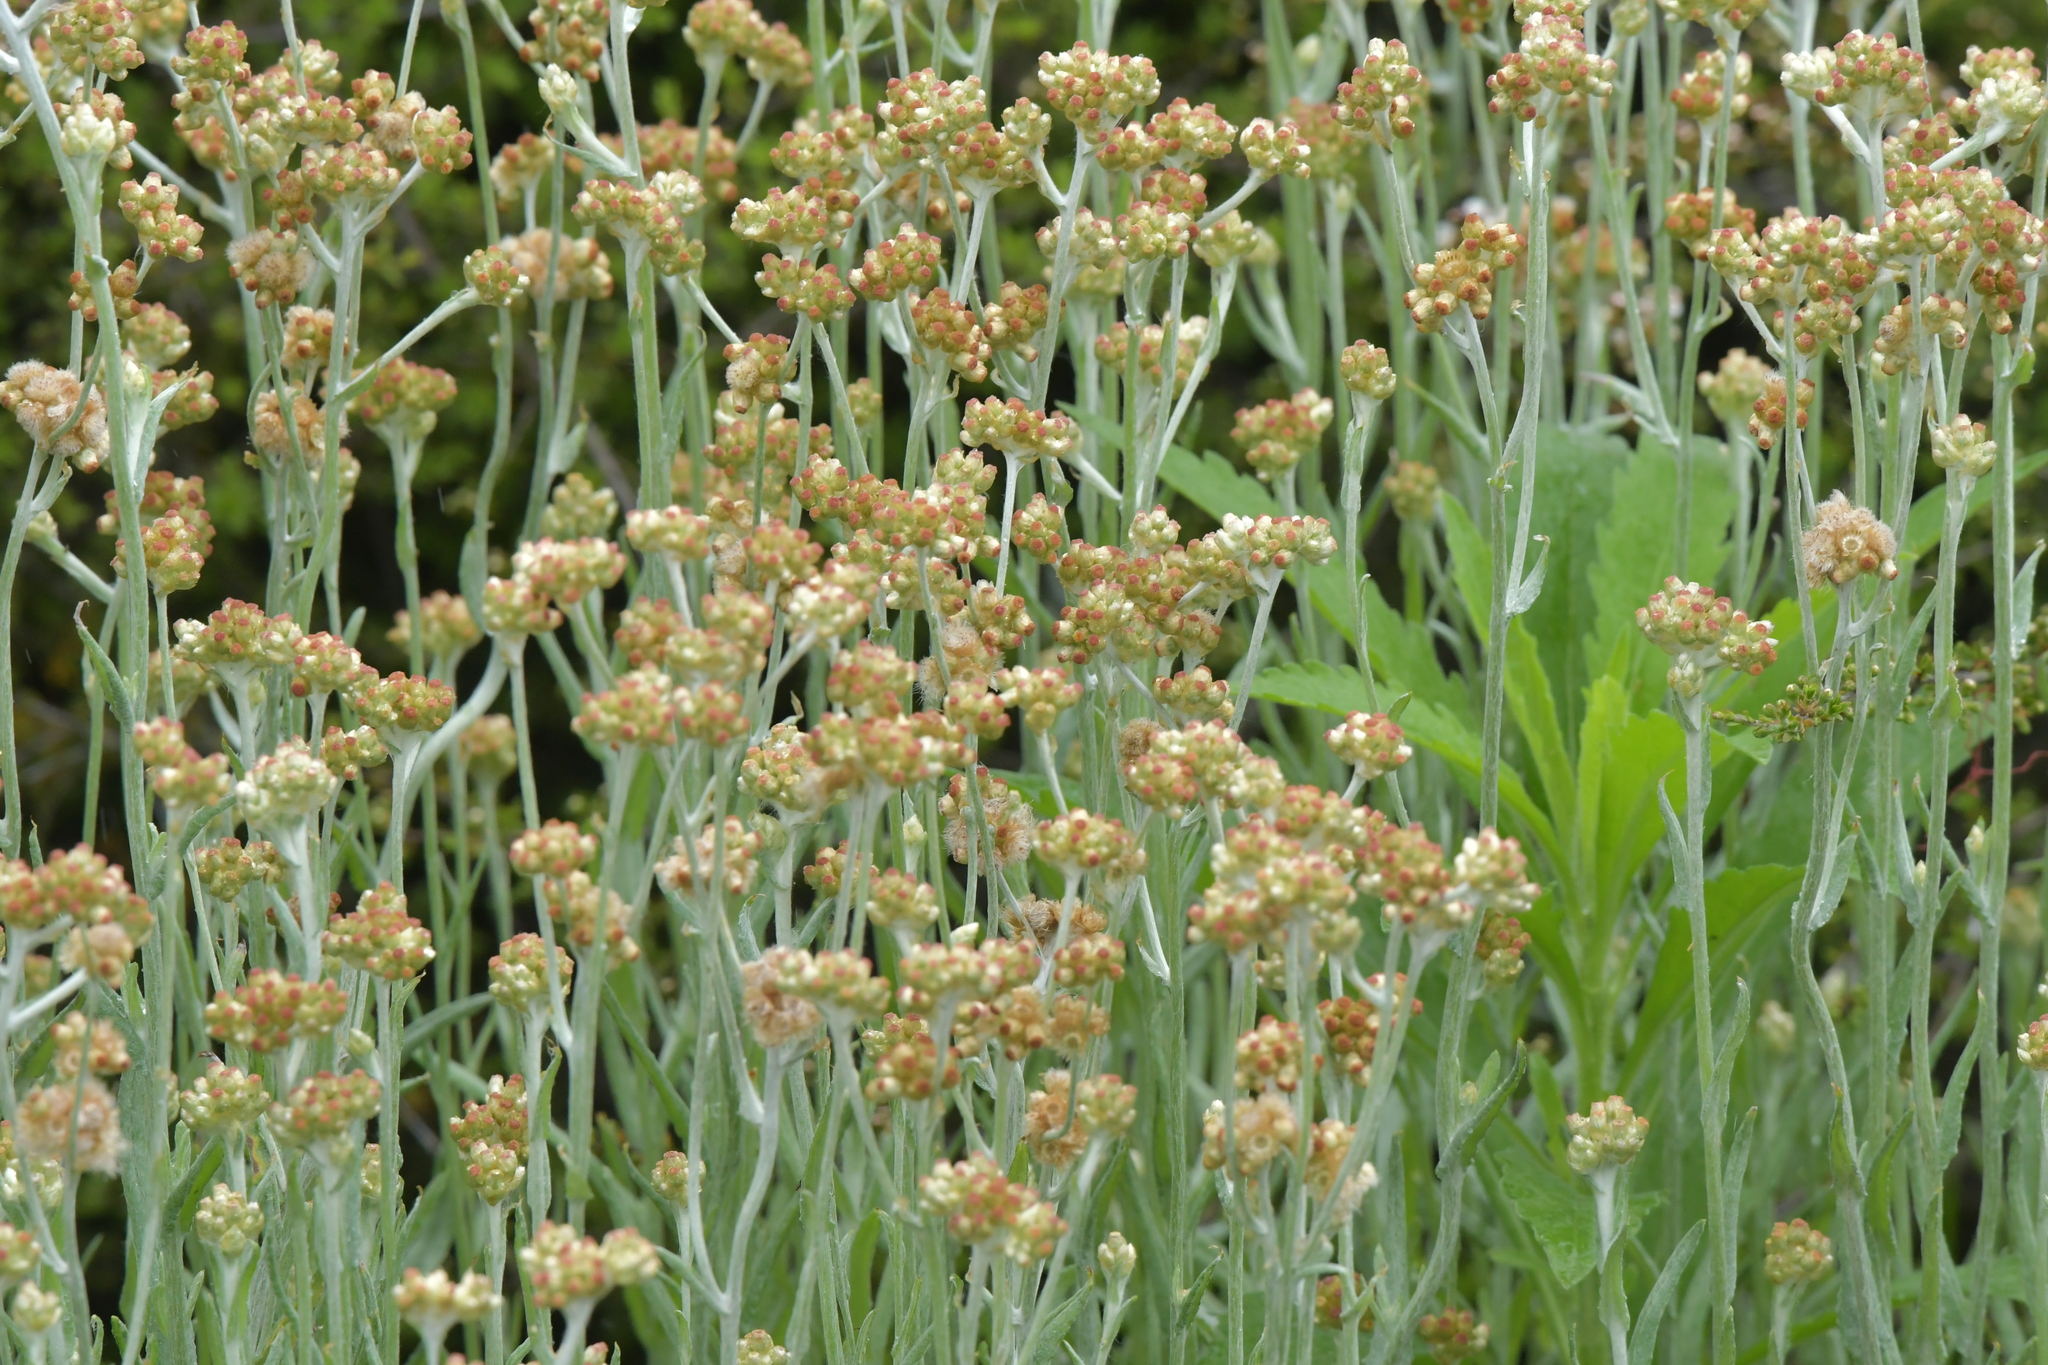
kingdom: Plantae
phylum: Tracheophyta
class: Magnoliopsida
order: Asterales
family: Asteraceae
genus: Helichrysum
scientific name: Helichrysum luteoalbum
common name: Daisy
